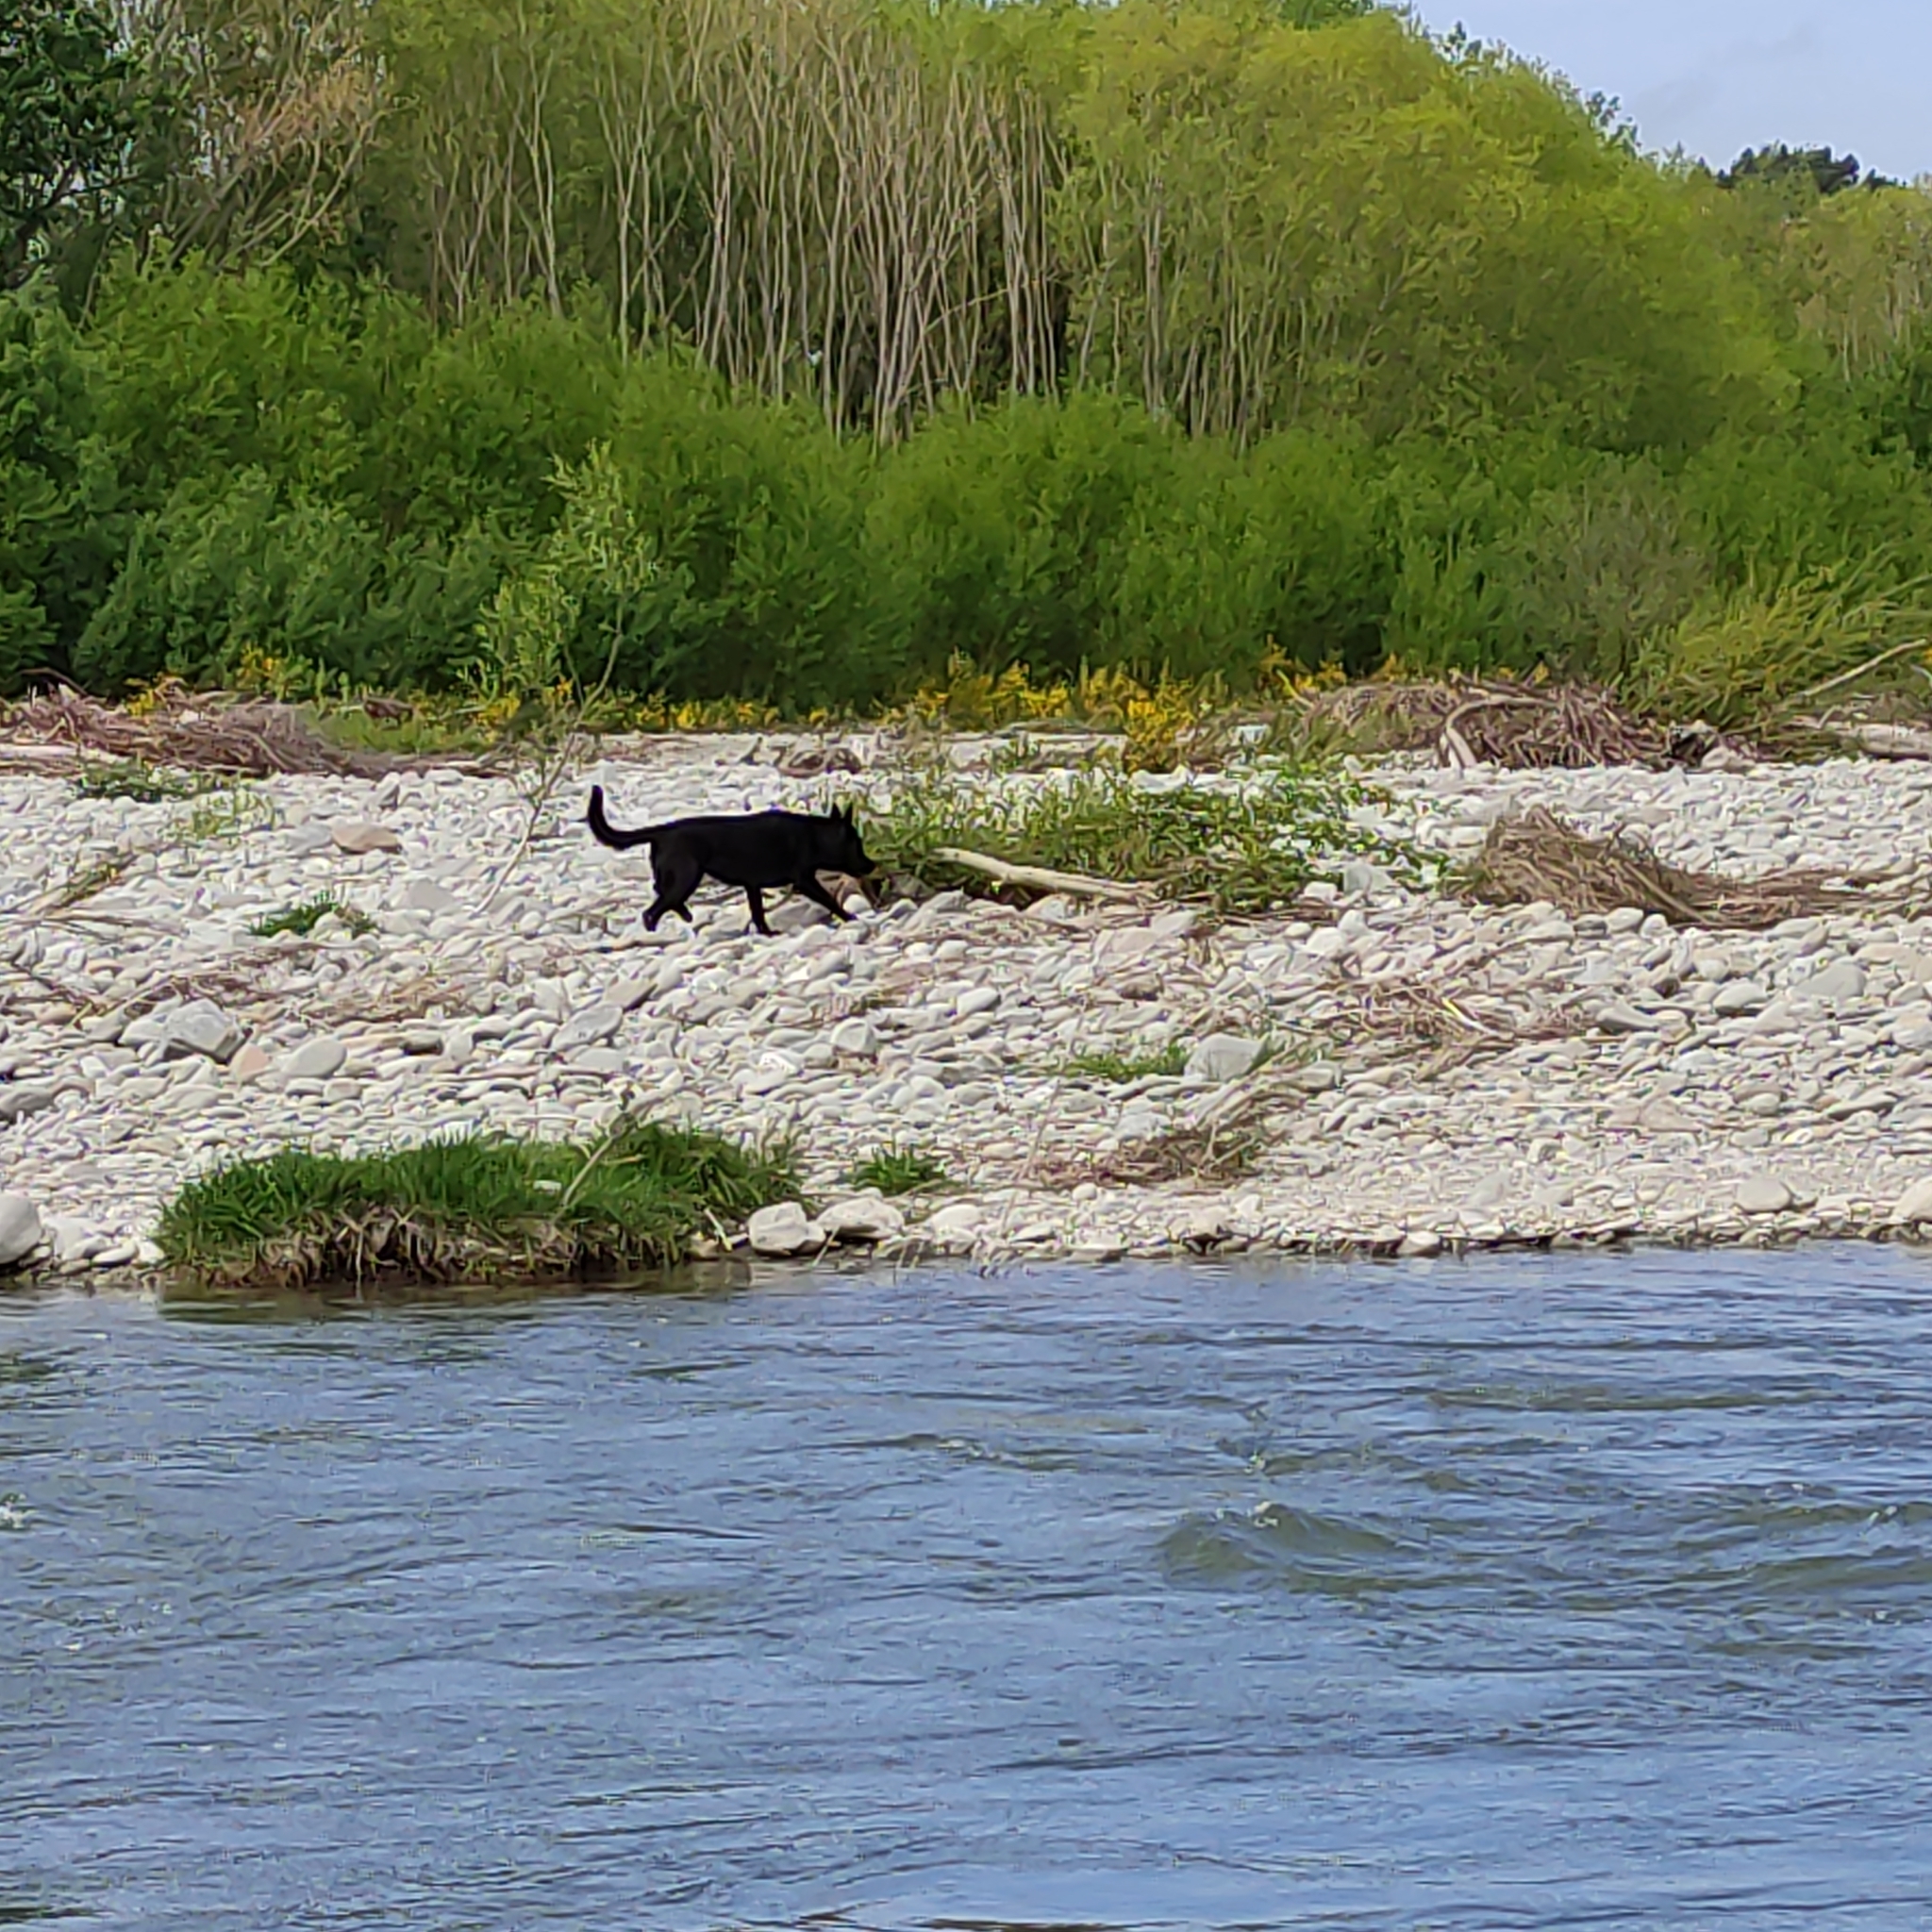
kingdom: Animalia
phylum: Chordata
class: Mammalia
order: Carnivora
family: Canidae
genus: Canis
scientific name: Canis lupus
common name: Gray wolf
